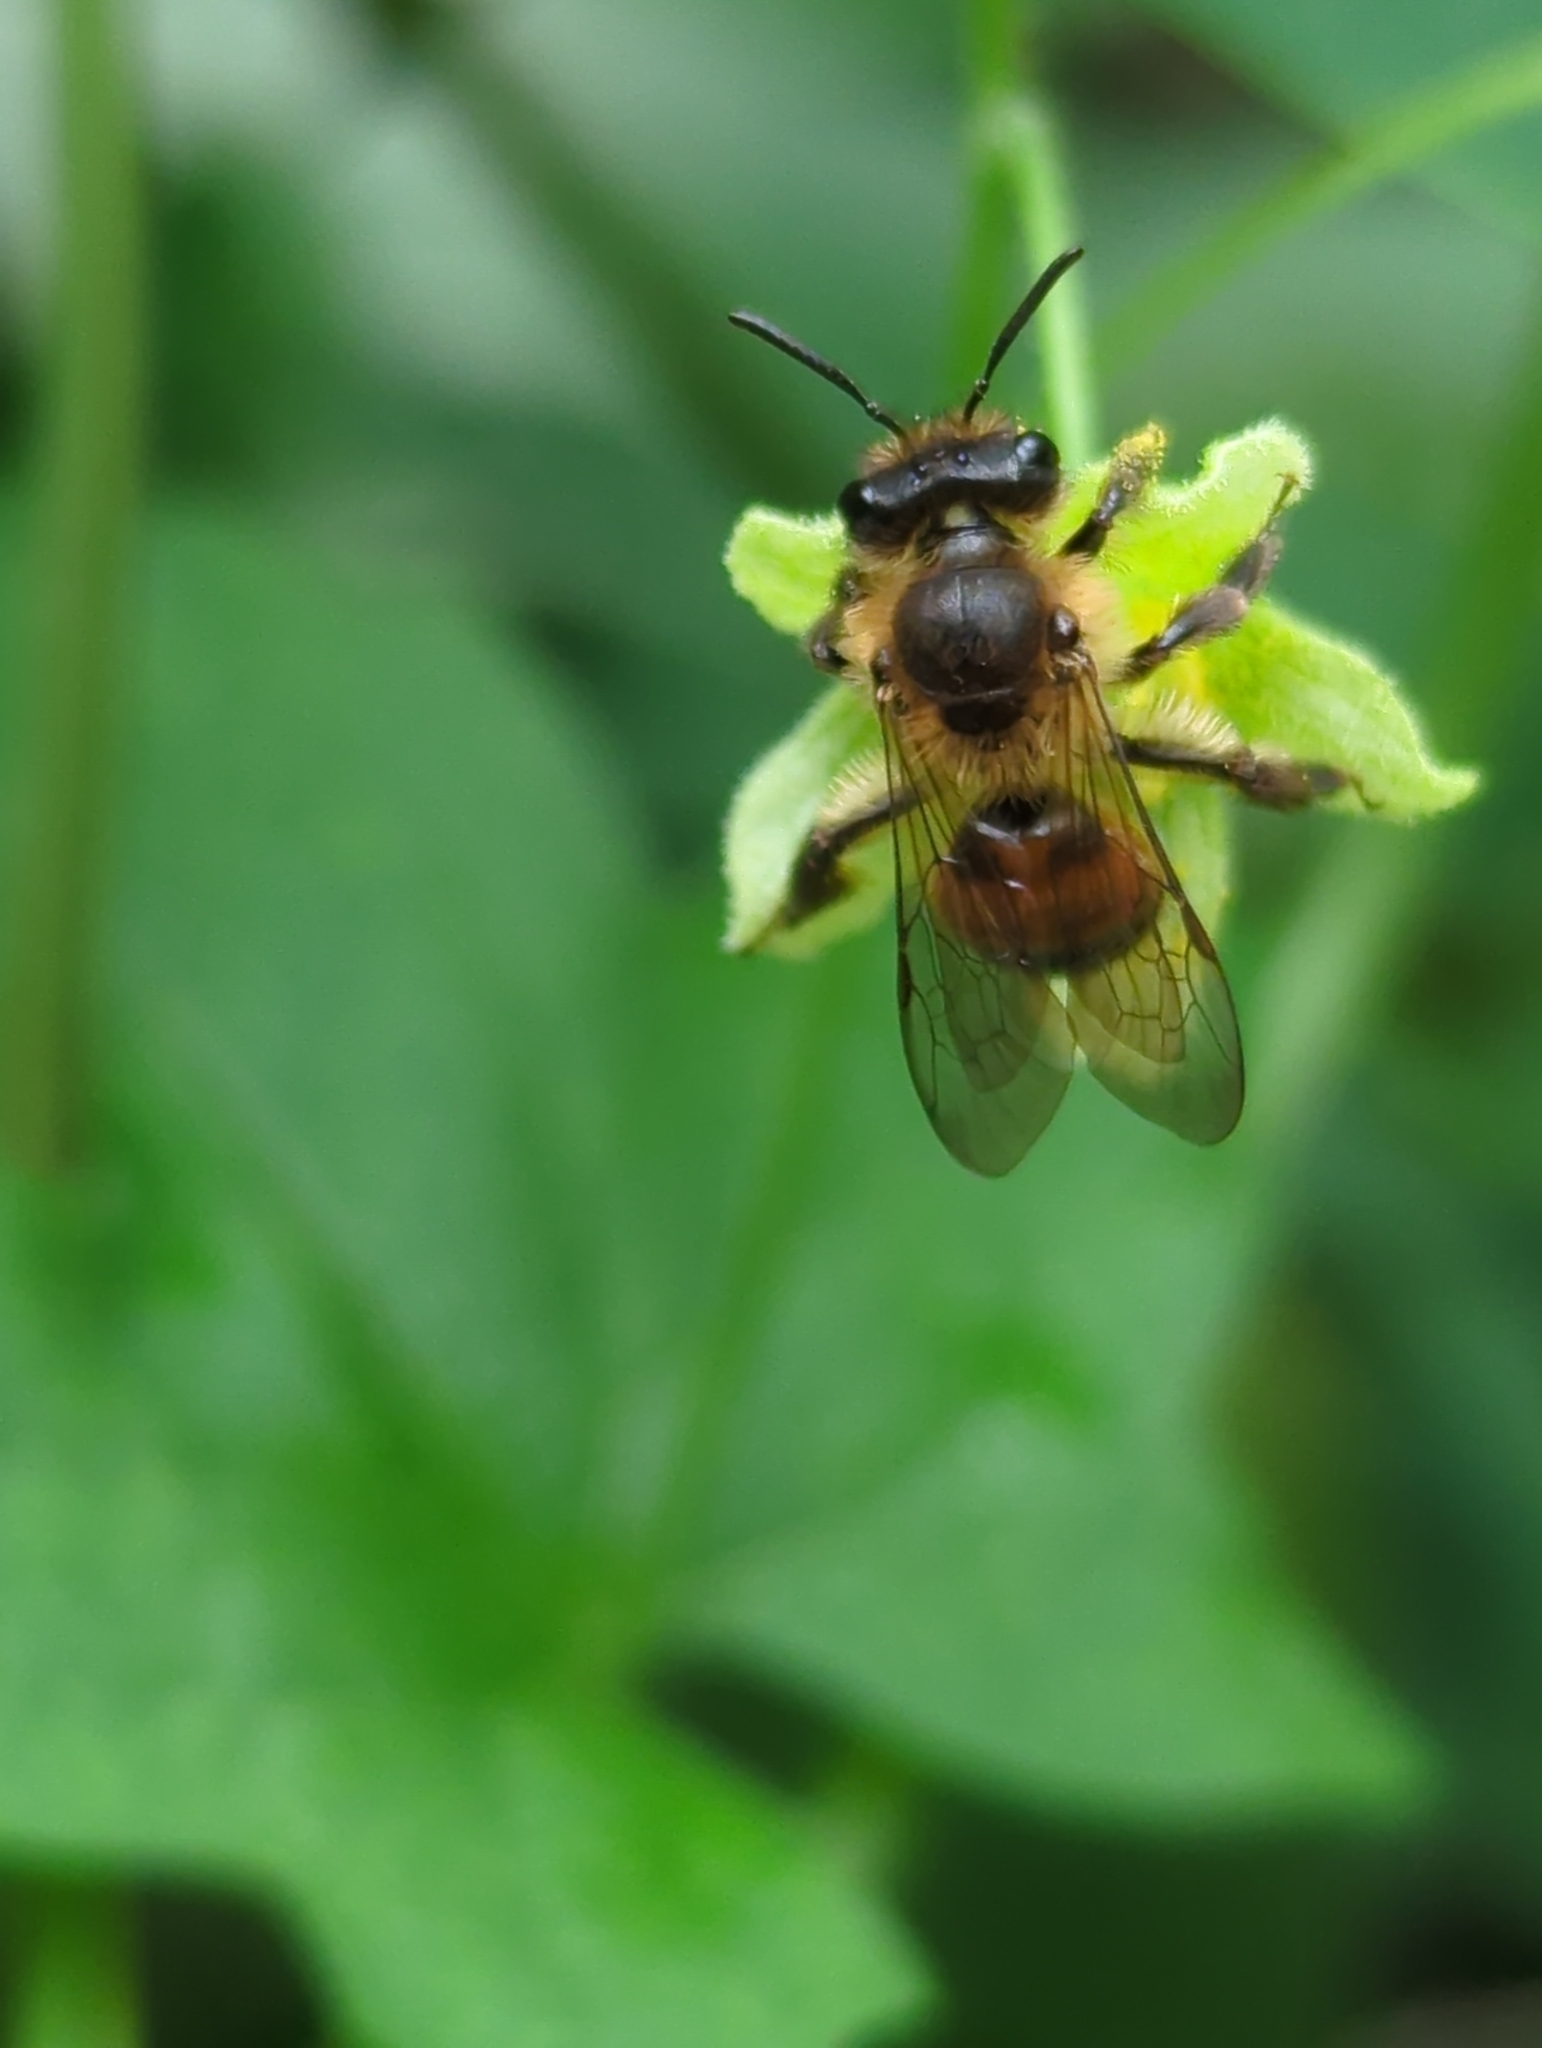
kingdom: Animalia
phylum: Arthropoda
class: Insecta
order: Hymenoptera
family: Andrenidae
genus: Andrena
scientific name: Andrena florea
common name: Bryony mining bee
